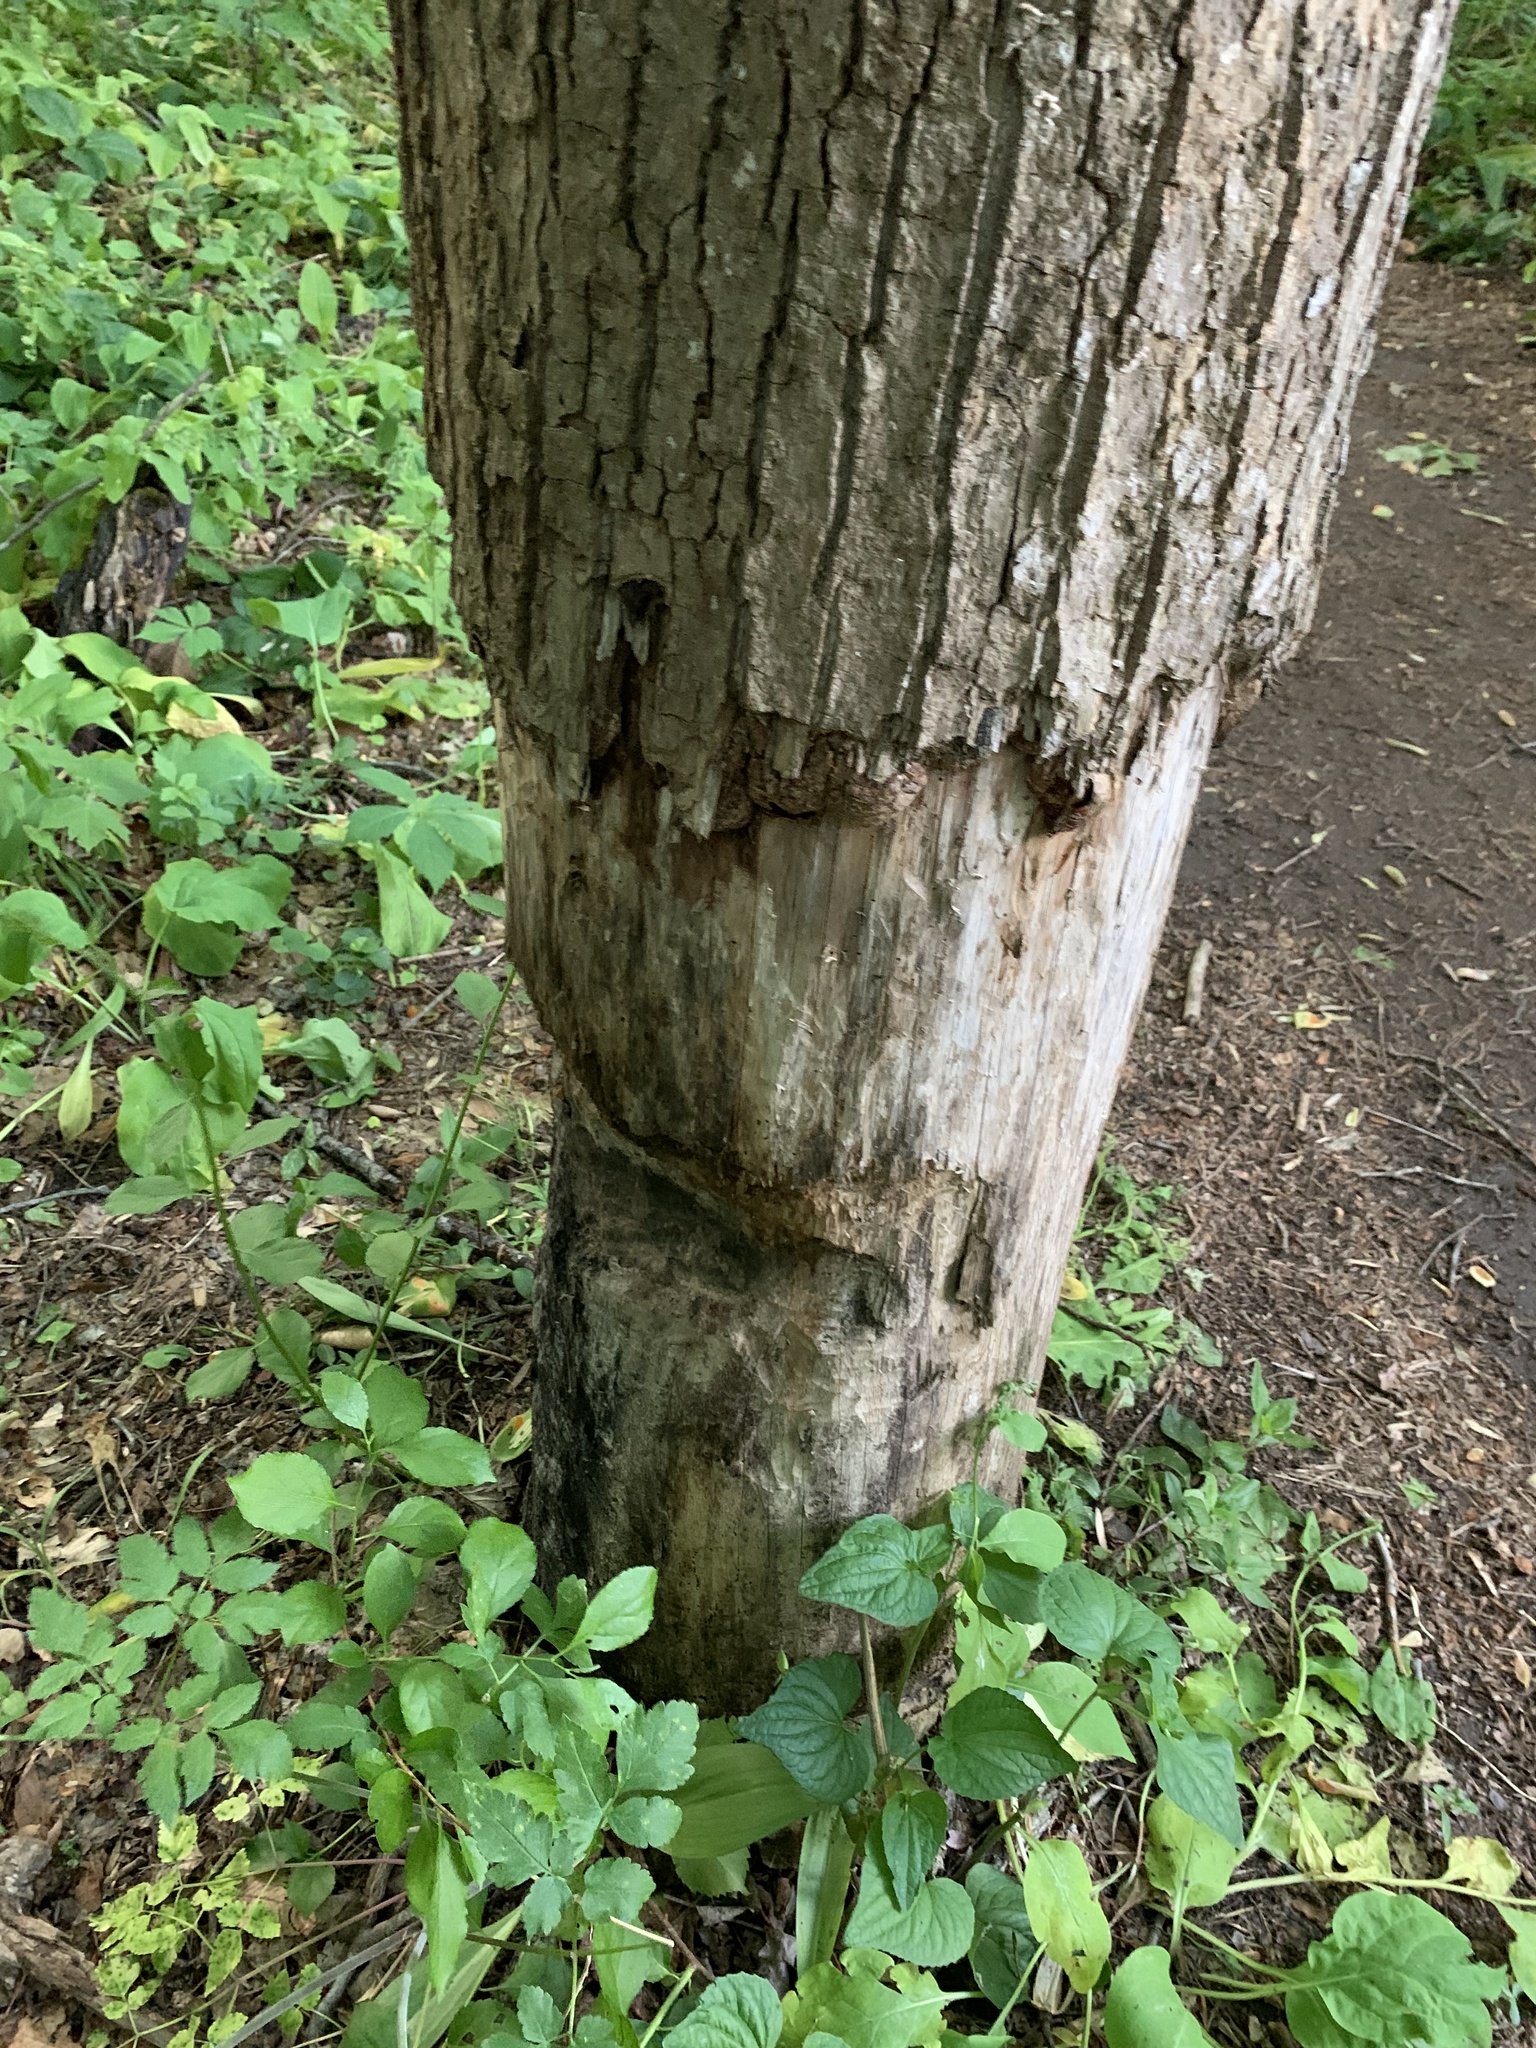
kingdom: Animalia
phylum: Chordata
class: Mammalia
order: Rodentia
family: Castoridae
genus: Castor
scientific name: Castor canadensis
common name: American beaver
